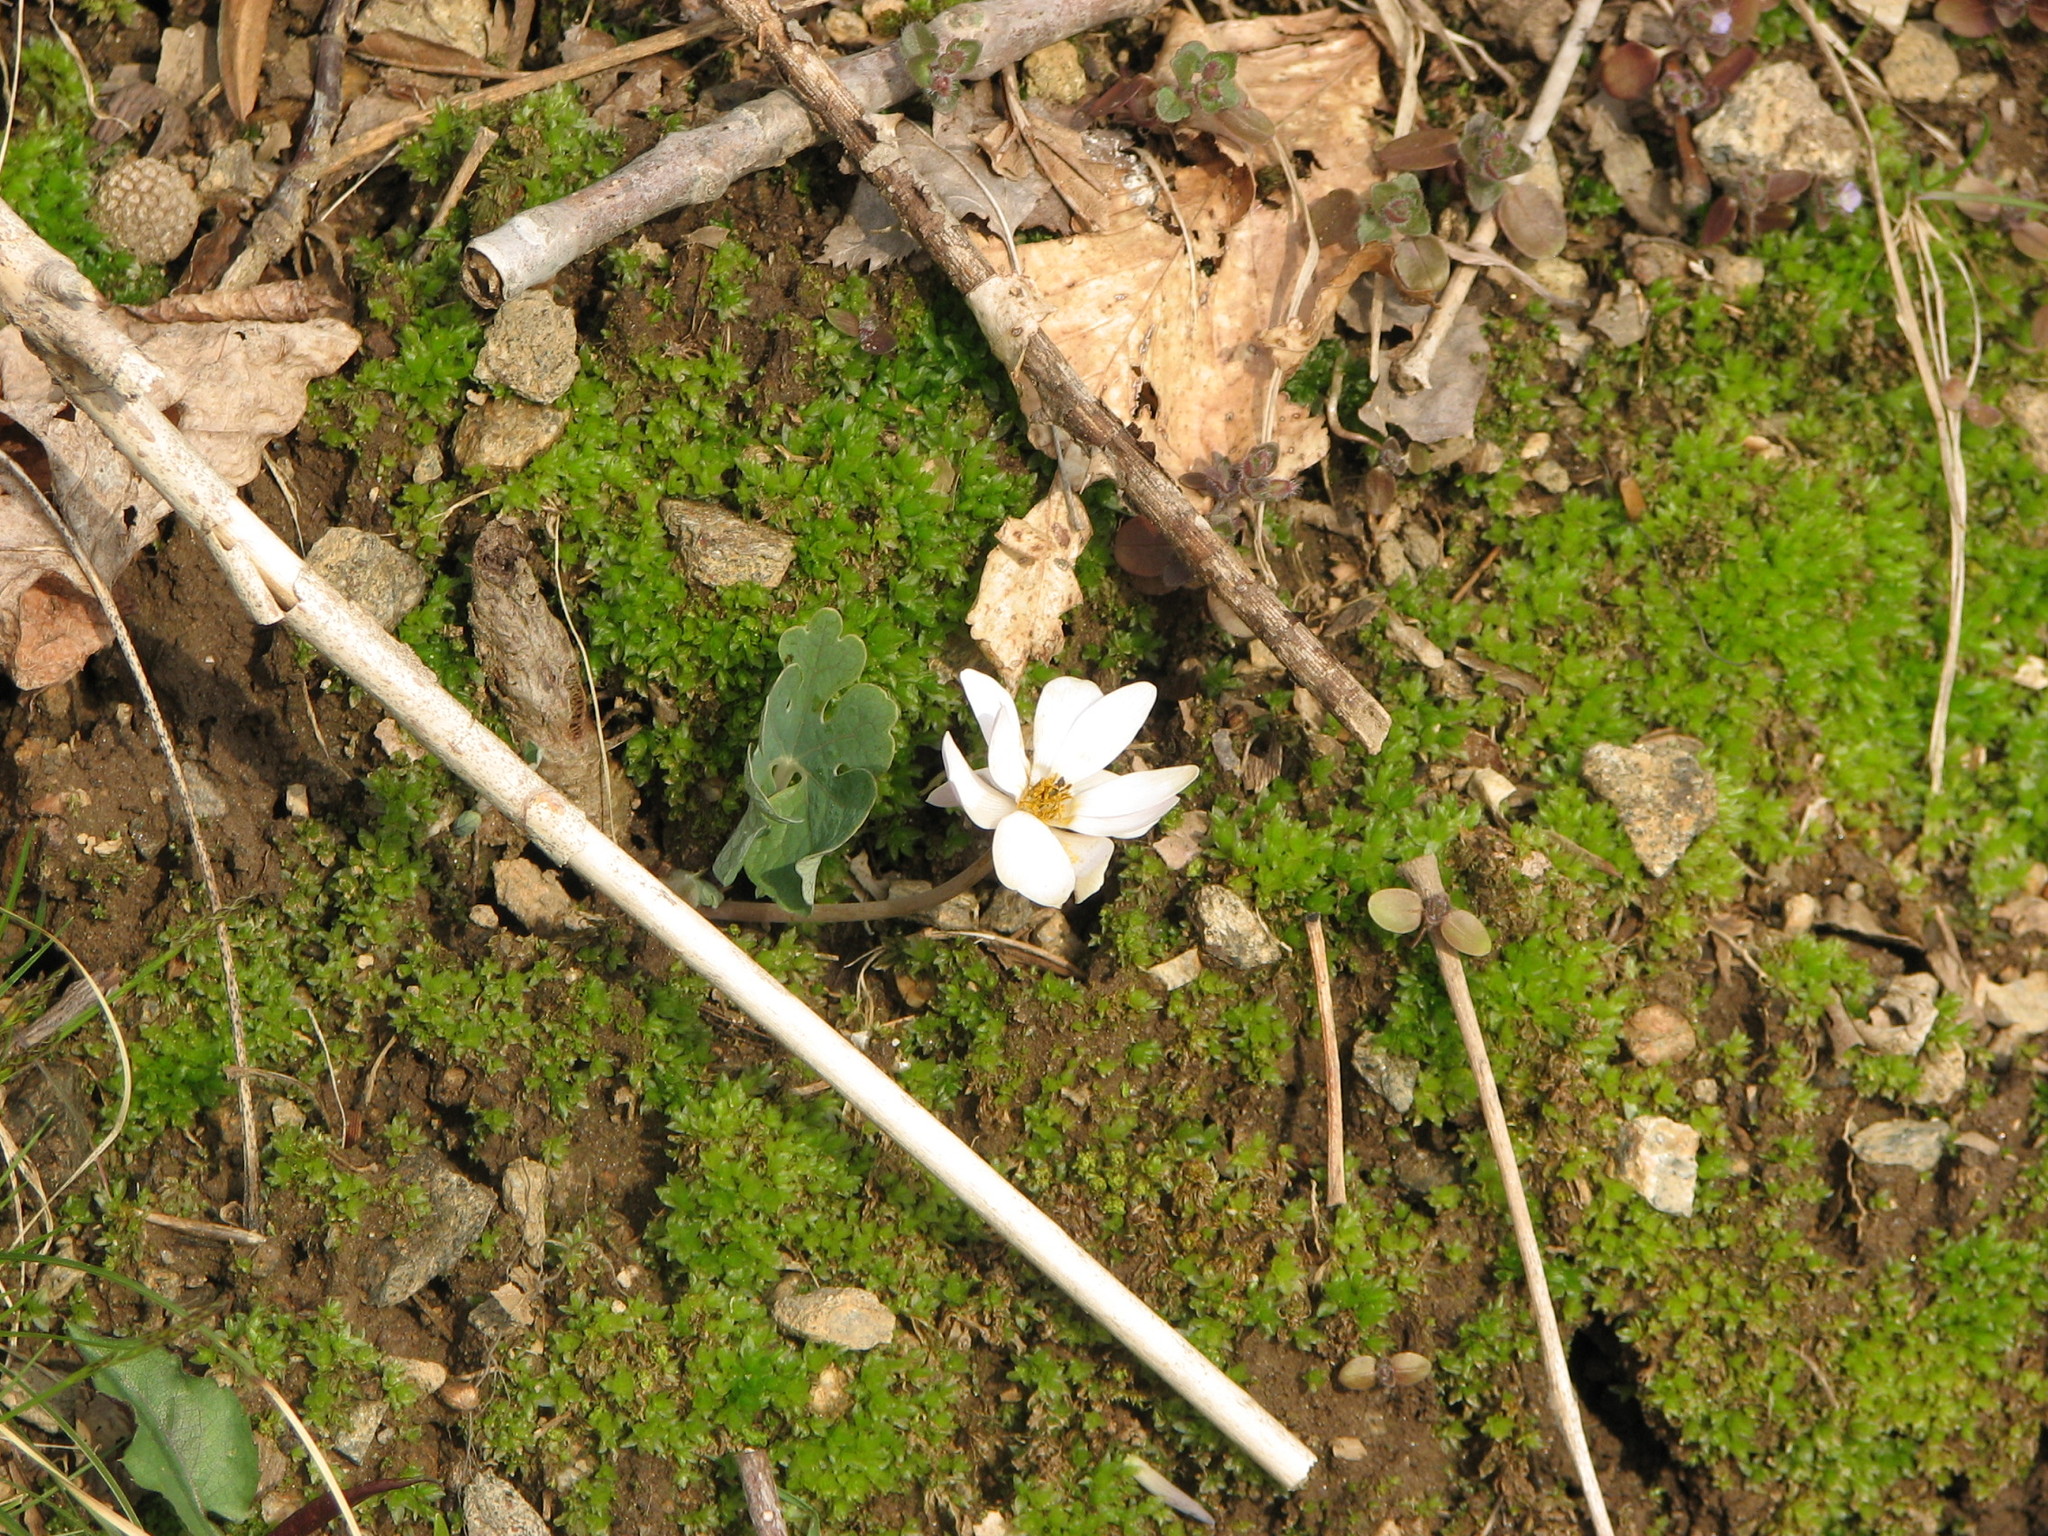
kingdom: Plantae
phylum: Tracheophyta
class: Magnoliopsida
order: Ranunculales
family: Papaveraceae
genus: Sanguinaria
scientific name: Sanguinaria canadensis
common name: Bloodroot
